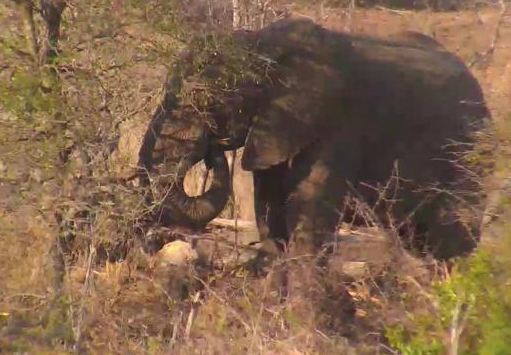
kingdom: Animalia
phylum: Chordata
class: Mammalia
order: Proboscidea
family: Elephantidae
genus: Loxodonta
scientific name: Loxodonta africana
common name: African elephant
